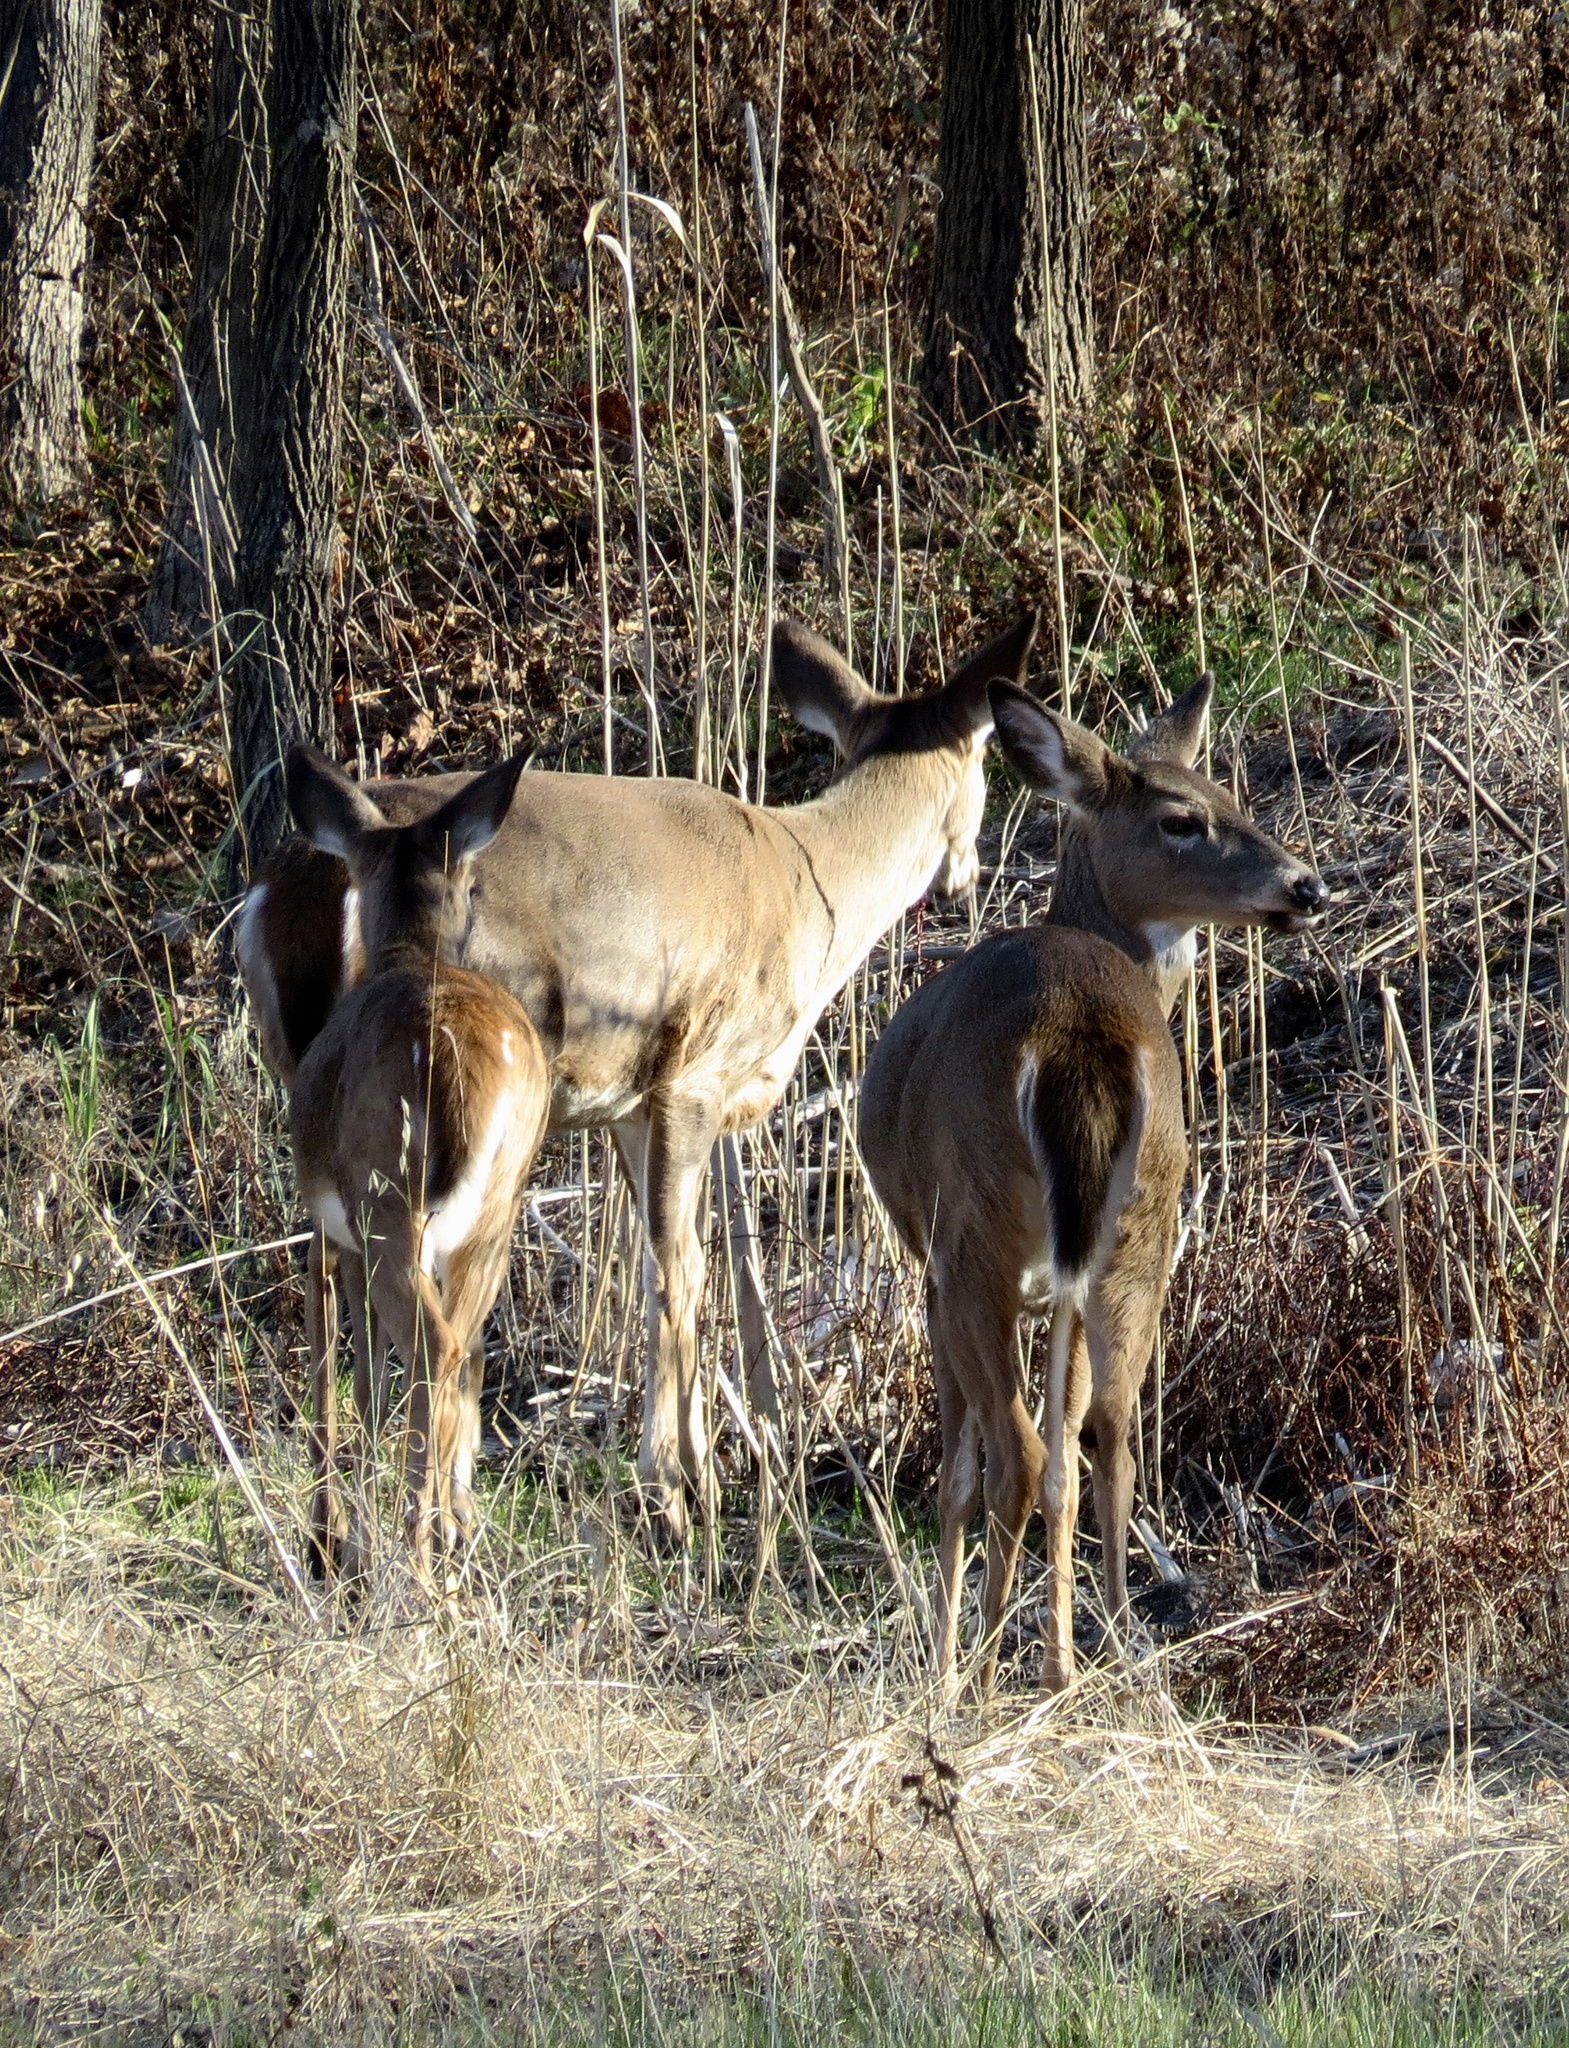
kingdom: Animalia
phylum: Chordata
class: Mammalia
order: Artiodactyla
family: Cervidae
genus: Odocoileus
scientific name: Odocoileus virginianus
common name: White-tailed deer
